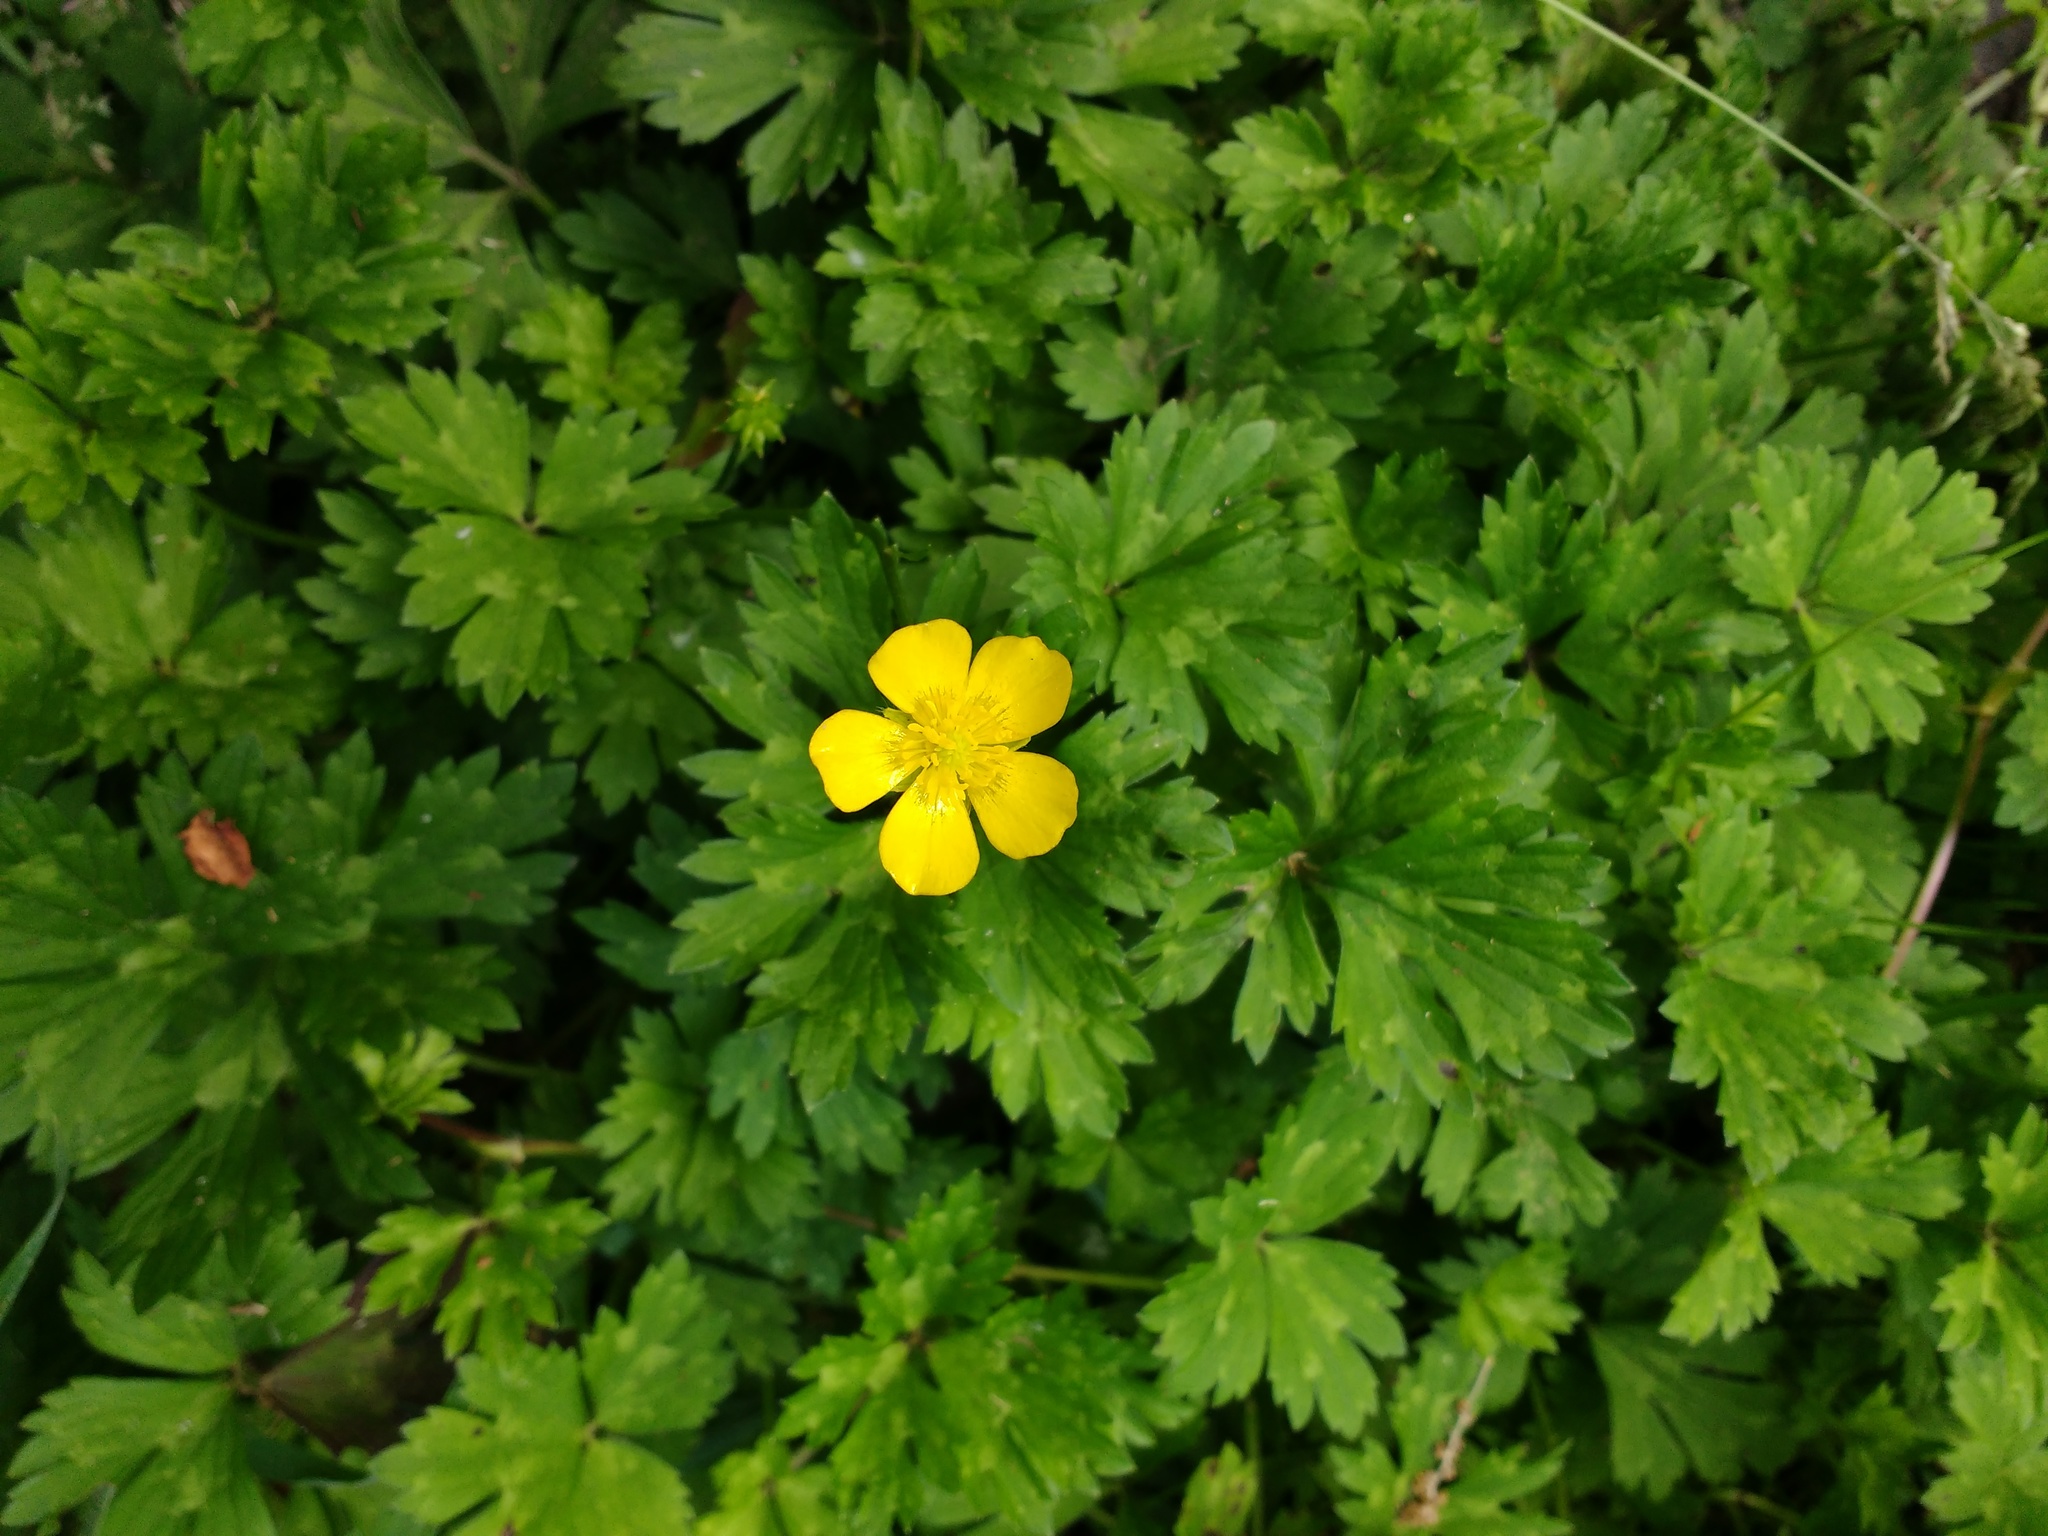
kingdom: Plantae
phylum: Tracheophyta
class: Magnoliopsida
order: Ranunculales
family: Ranunculaceae
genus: Ranunculus
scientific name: Ranunculus repens
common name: Creeping buttercup
